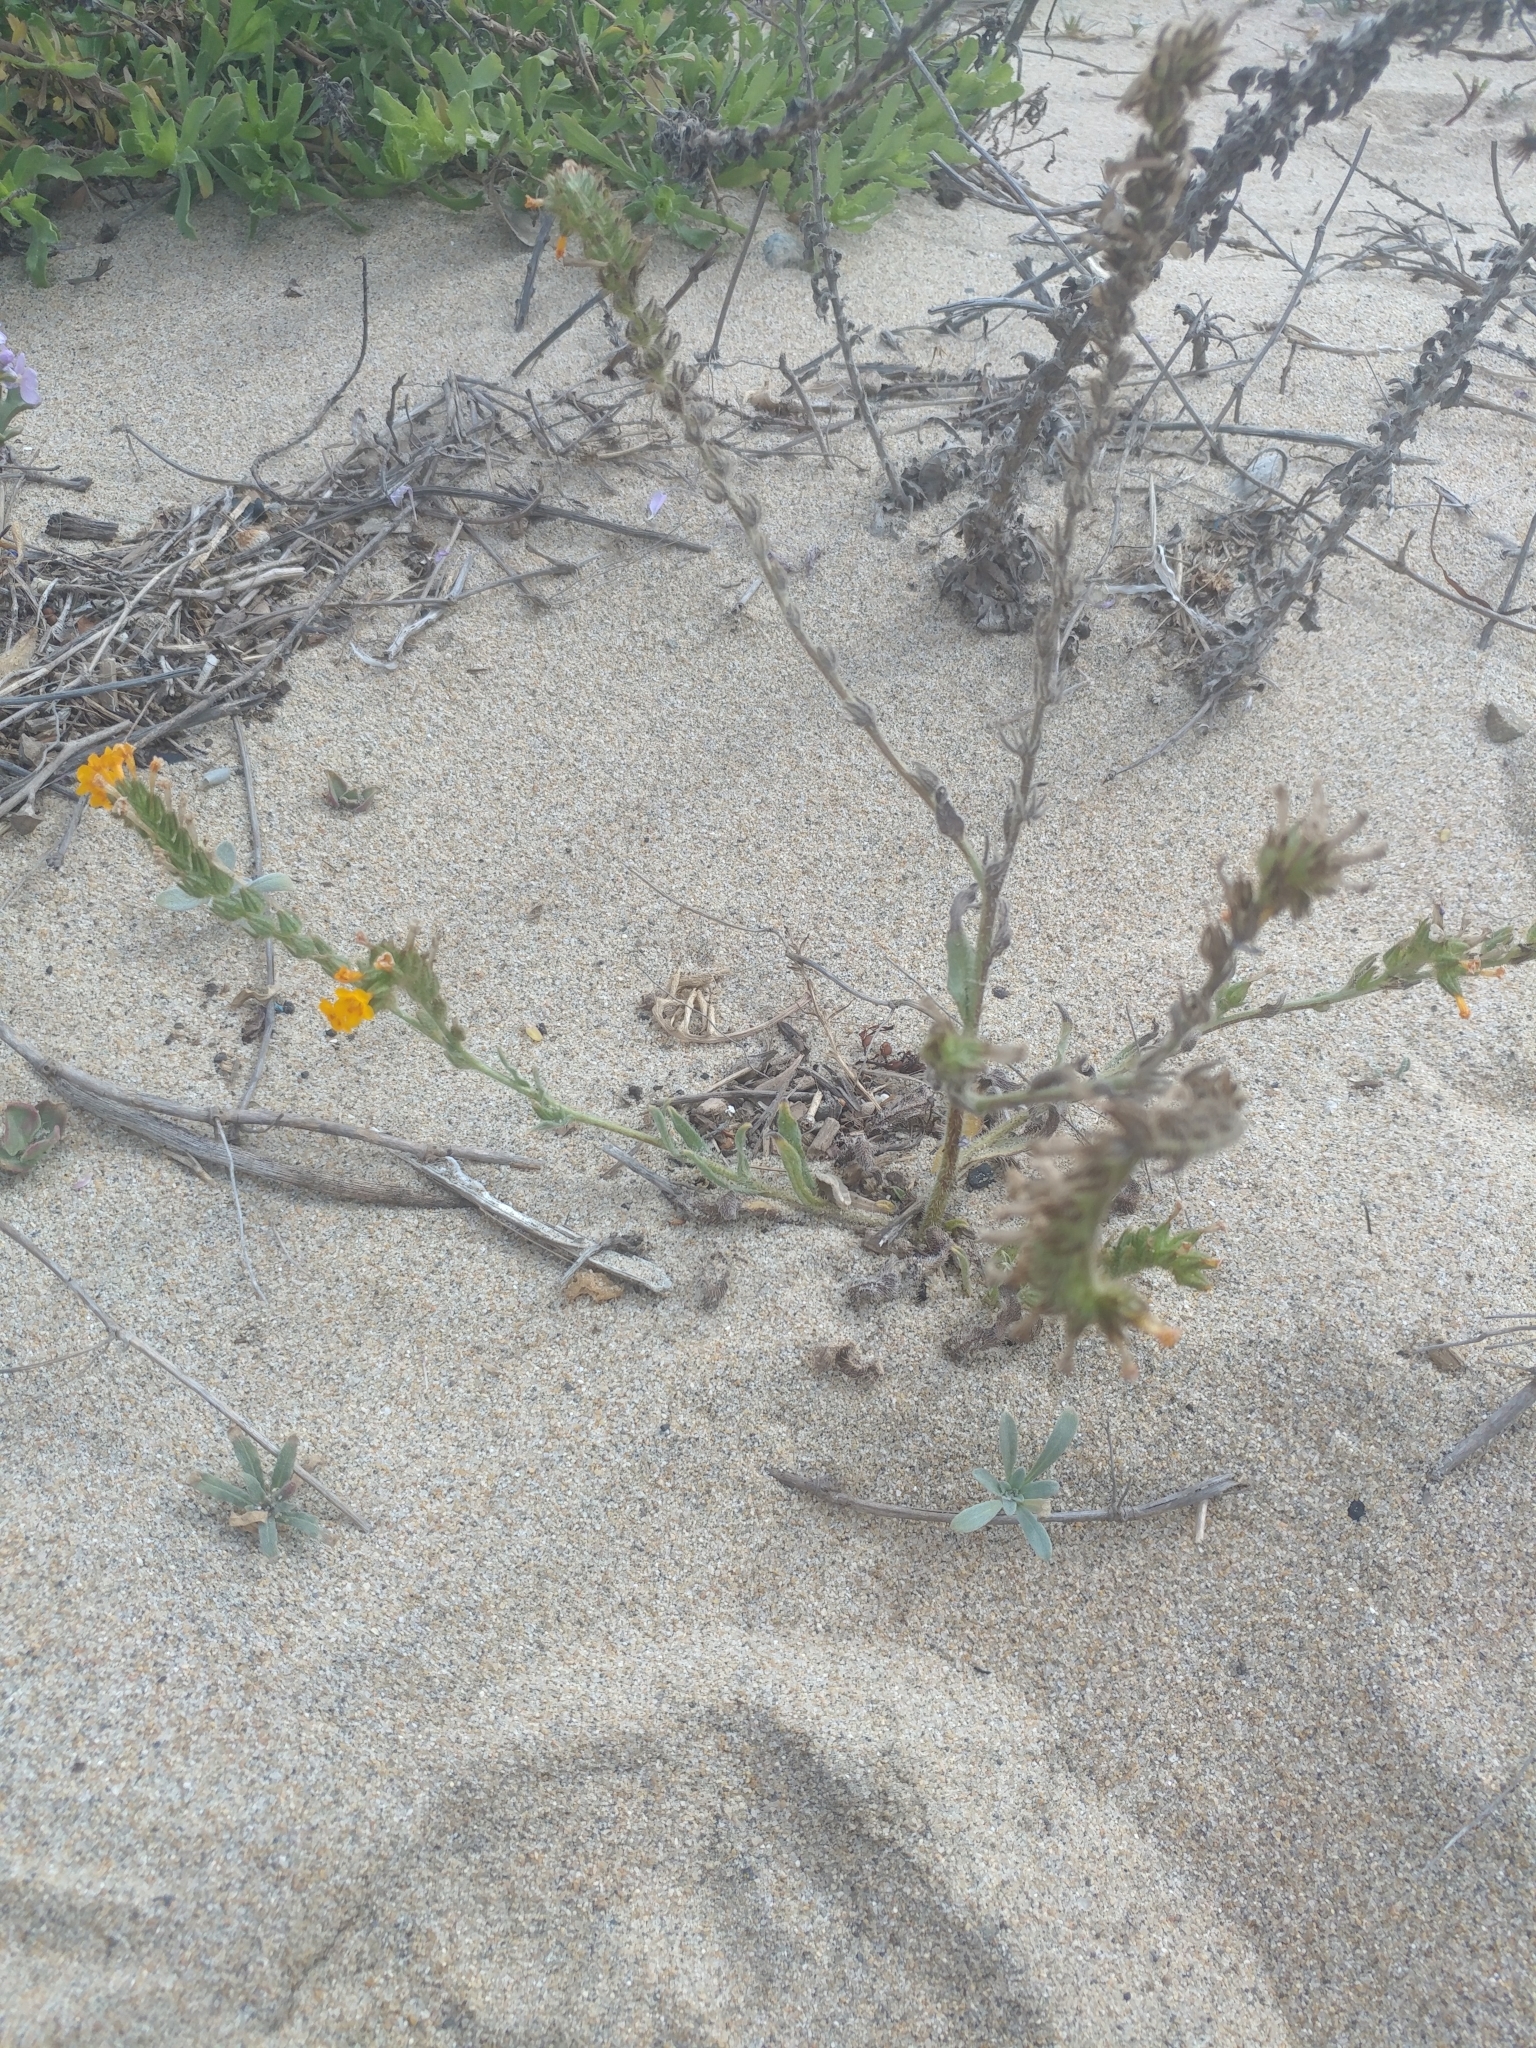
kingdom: Plantae
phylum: Tracheophyta
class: Magnoliopsida
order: Boraginales
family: Boraginaceae
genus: Amsinckia
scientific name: Amsinckia menziesii
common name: Menzies' fiddleneck
